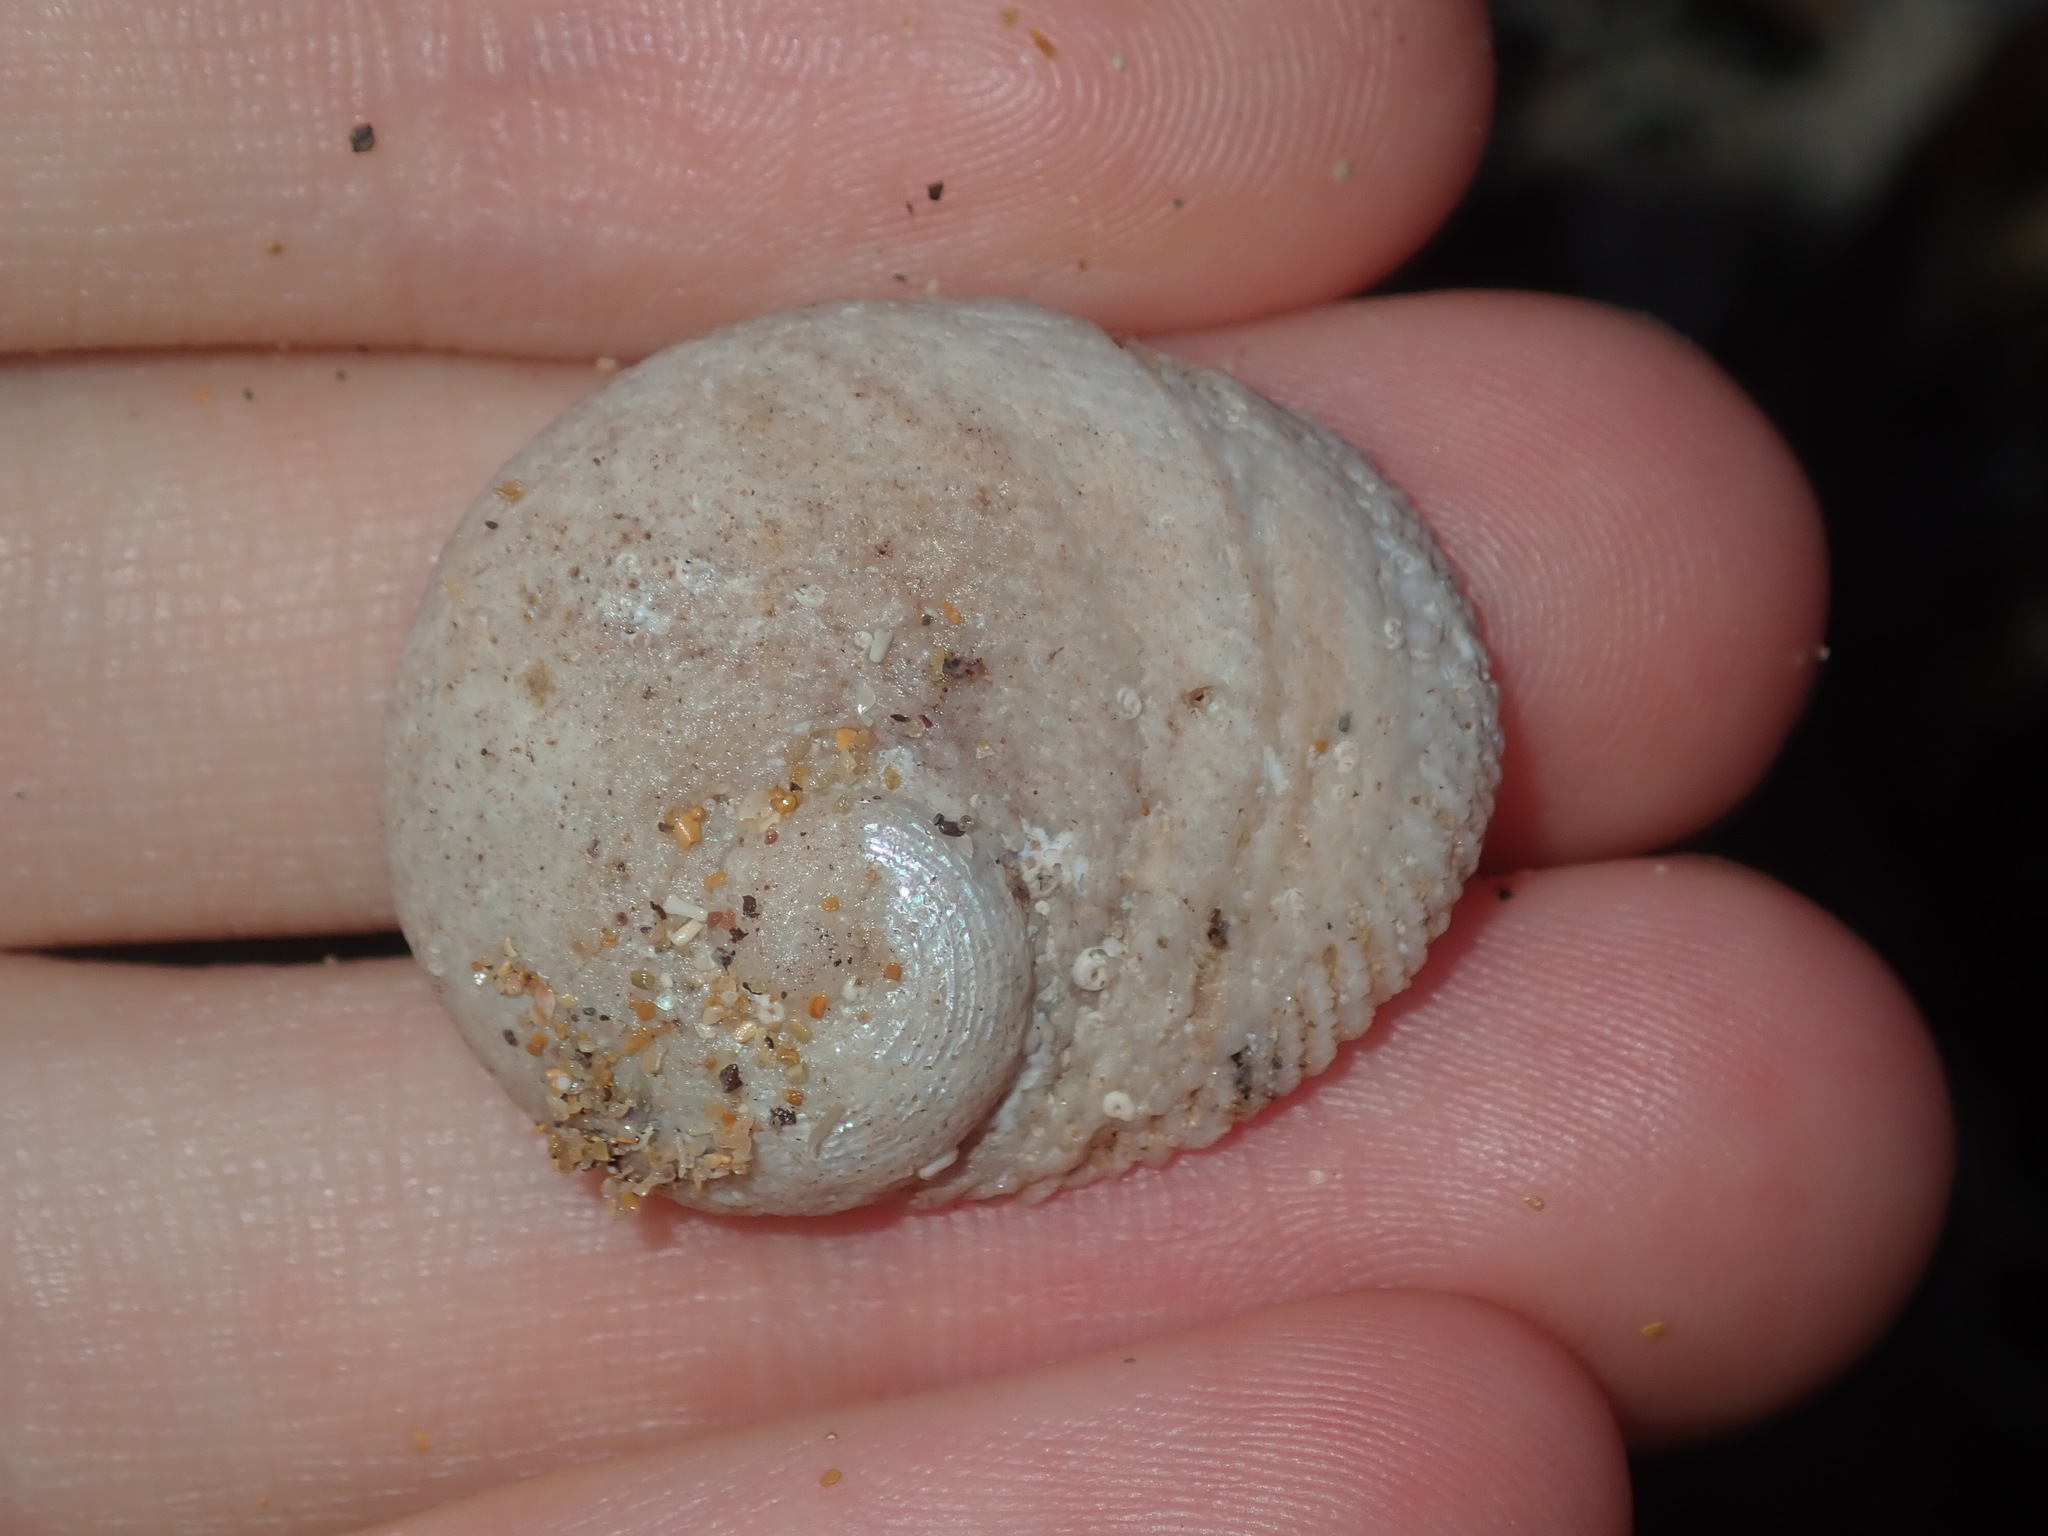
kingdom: Animalia
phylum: Mollusca
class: Gastropoda
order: Seguenziida
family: Chilodontaidae
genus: Granata
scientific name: Granata imbricata
